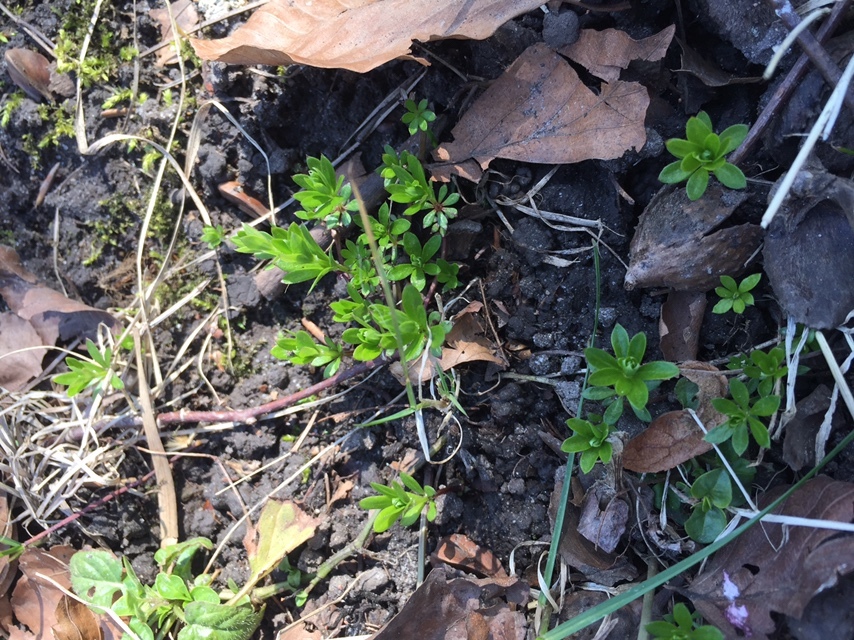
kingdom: Plantae
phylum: Tracheophyta
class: Magnoliopsida
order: Gentianales
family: Rubiaceae
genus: Galium
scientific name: Galium odoratum
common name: Sweet woodruff
